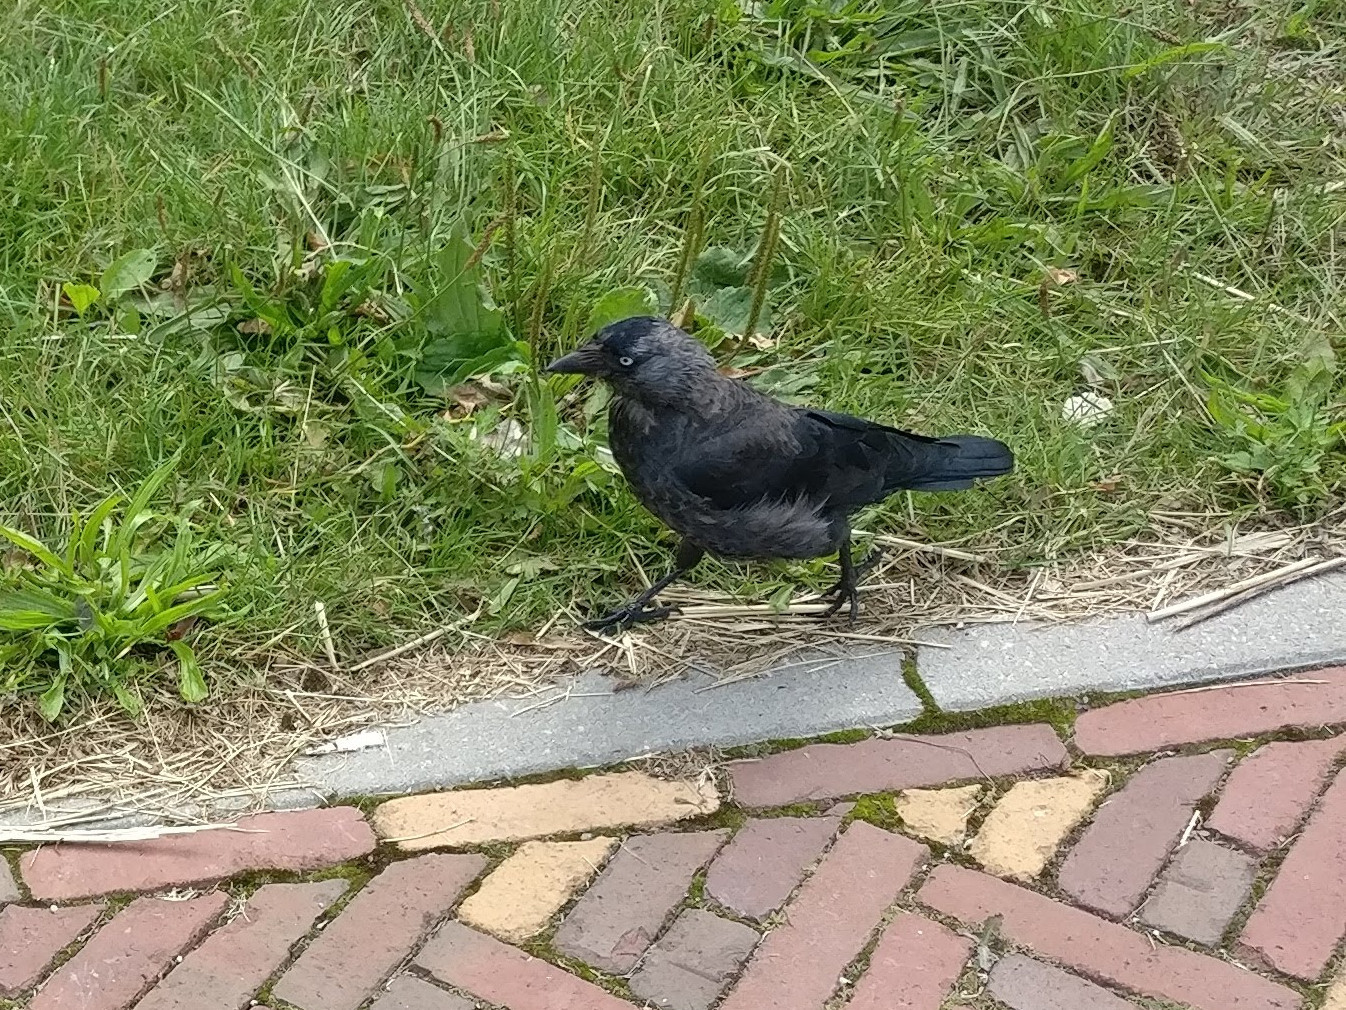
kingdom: Animalia
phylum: Chordata
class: Aves
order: Passeriformes
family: Corvidae
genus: Coloeus
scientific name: Coloeus monedula
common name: Western jackdaw
